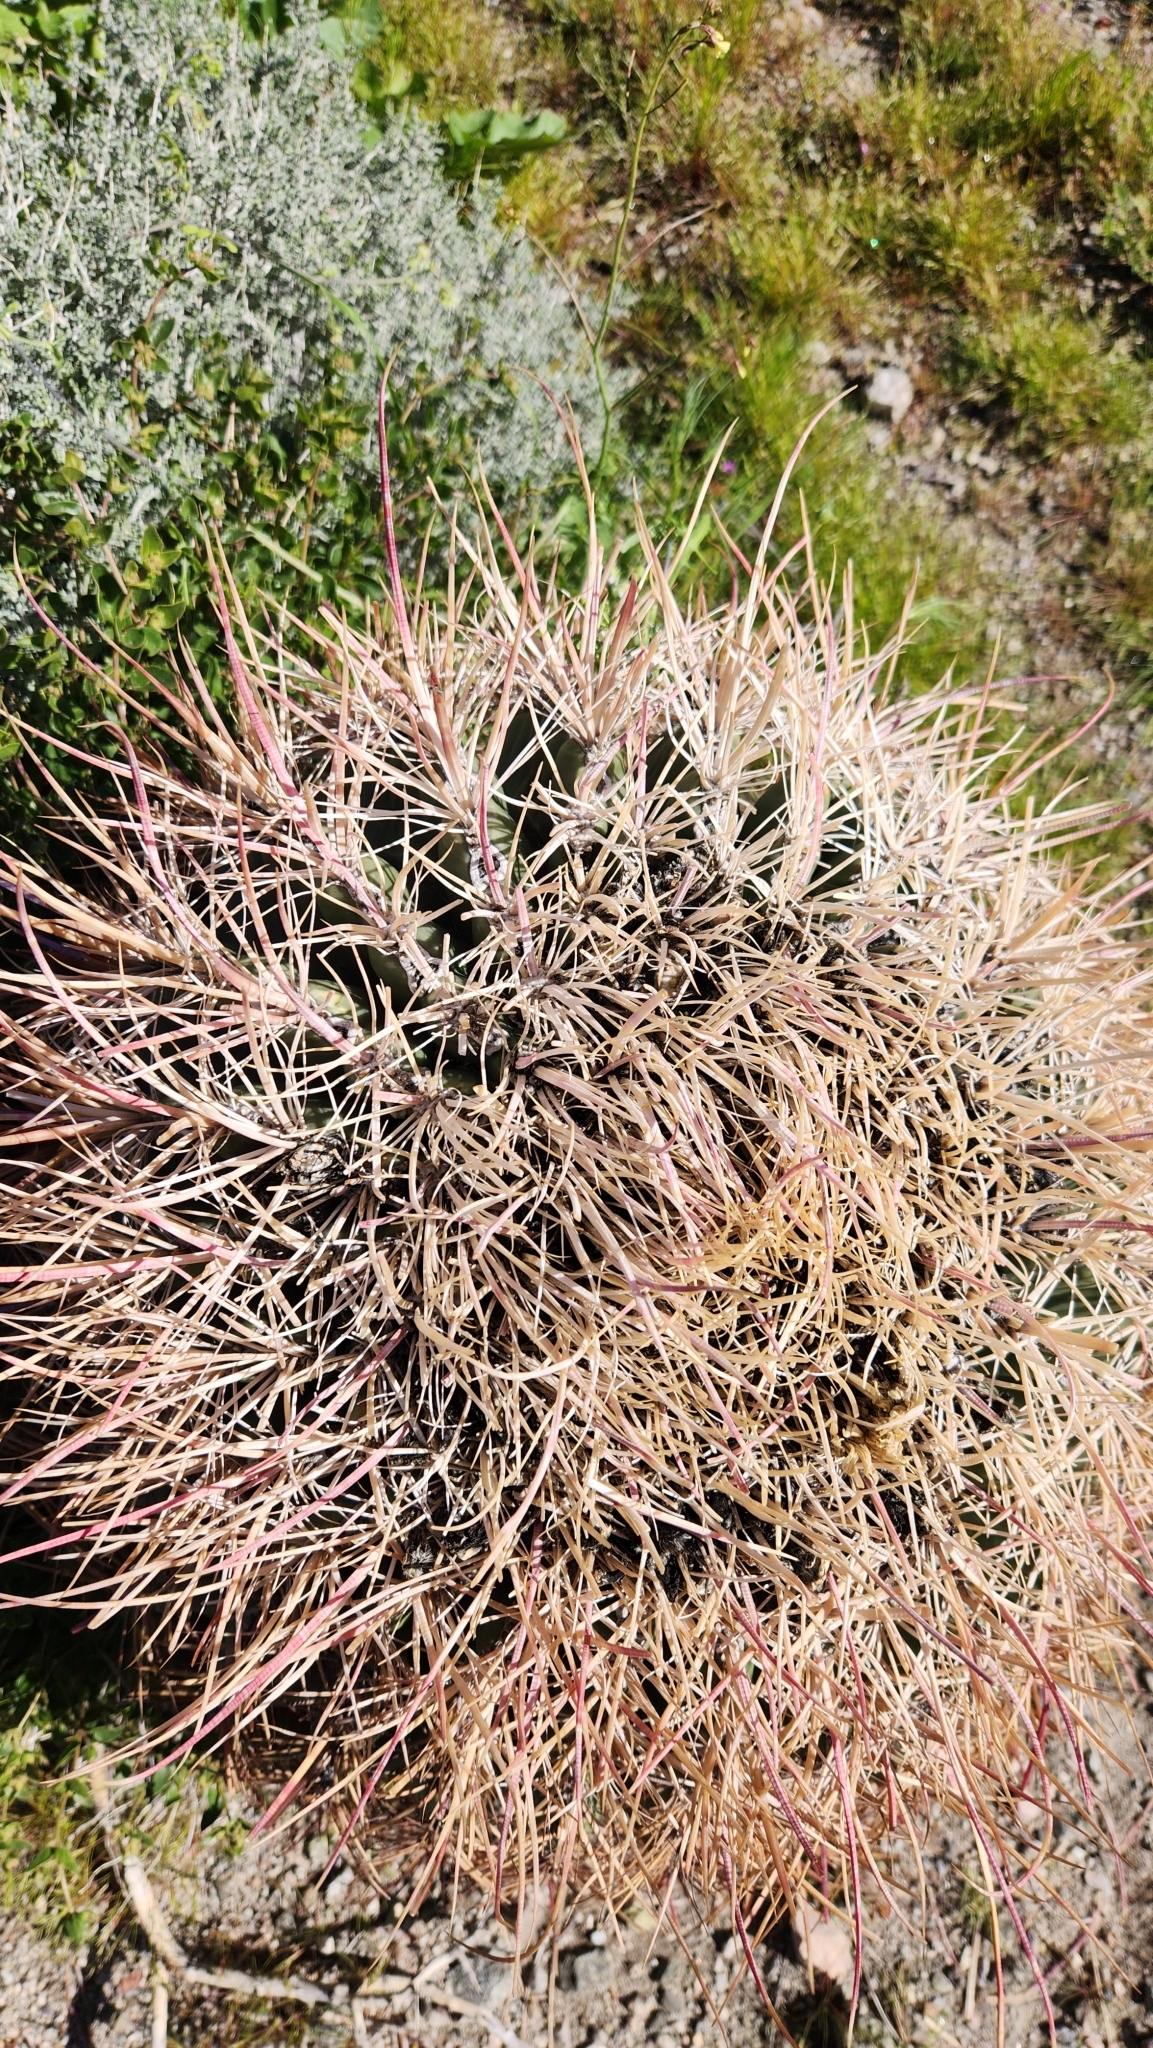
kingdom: Plantae
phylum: Tracheophyta
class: Magnoliopsida
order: Caryophyllales
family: Cactaceae
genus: Ferocactus
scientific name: Ferocactus cylindraceus
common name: California barrel cactus
